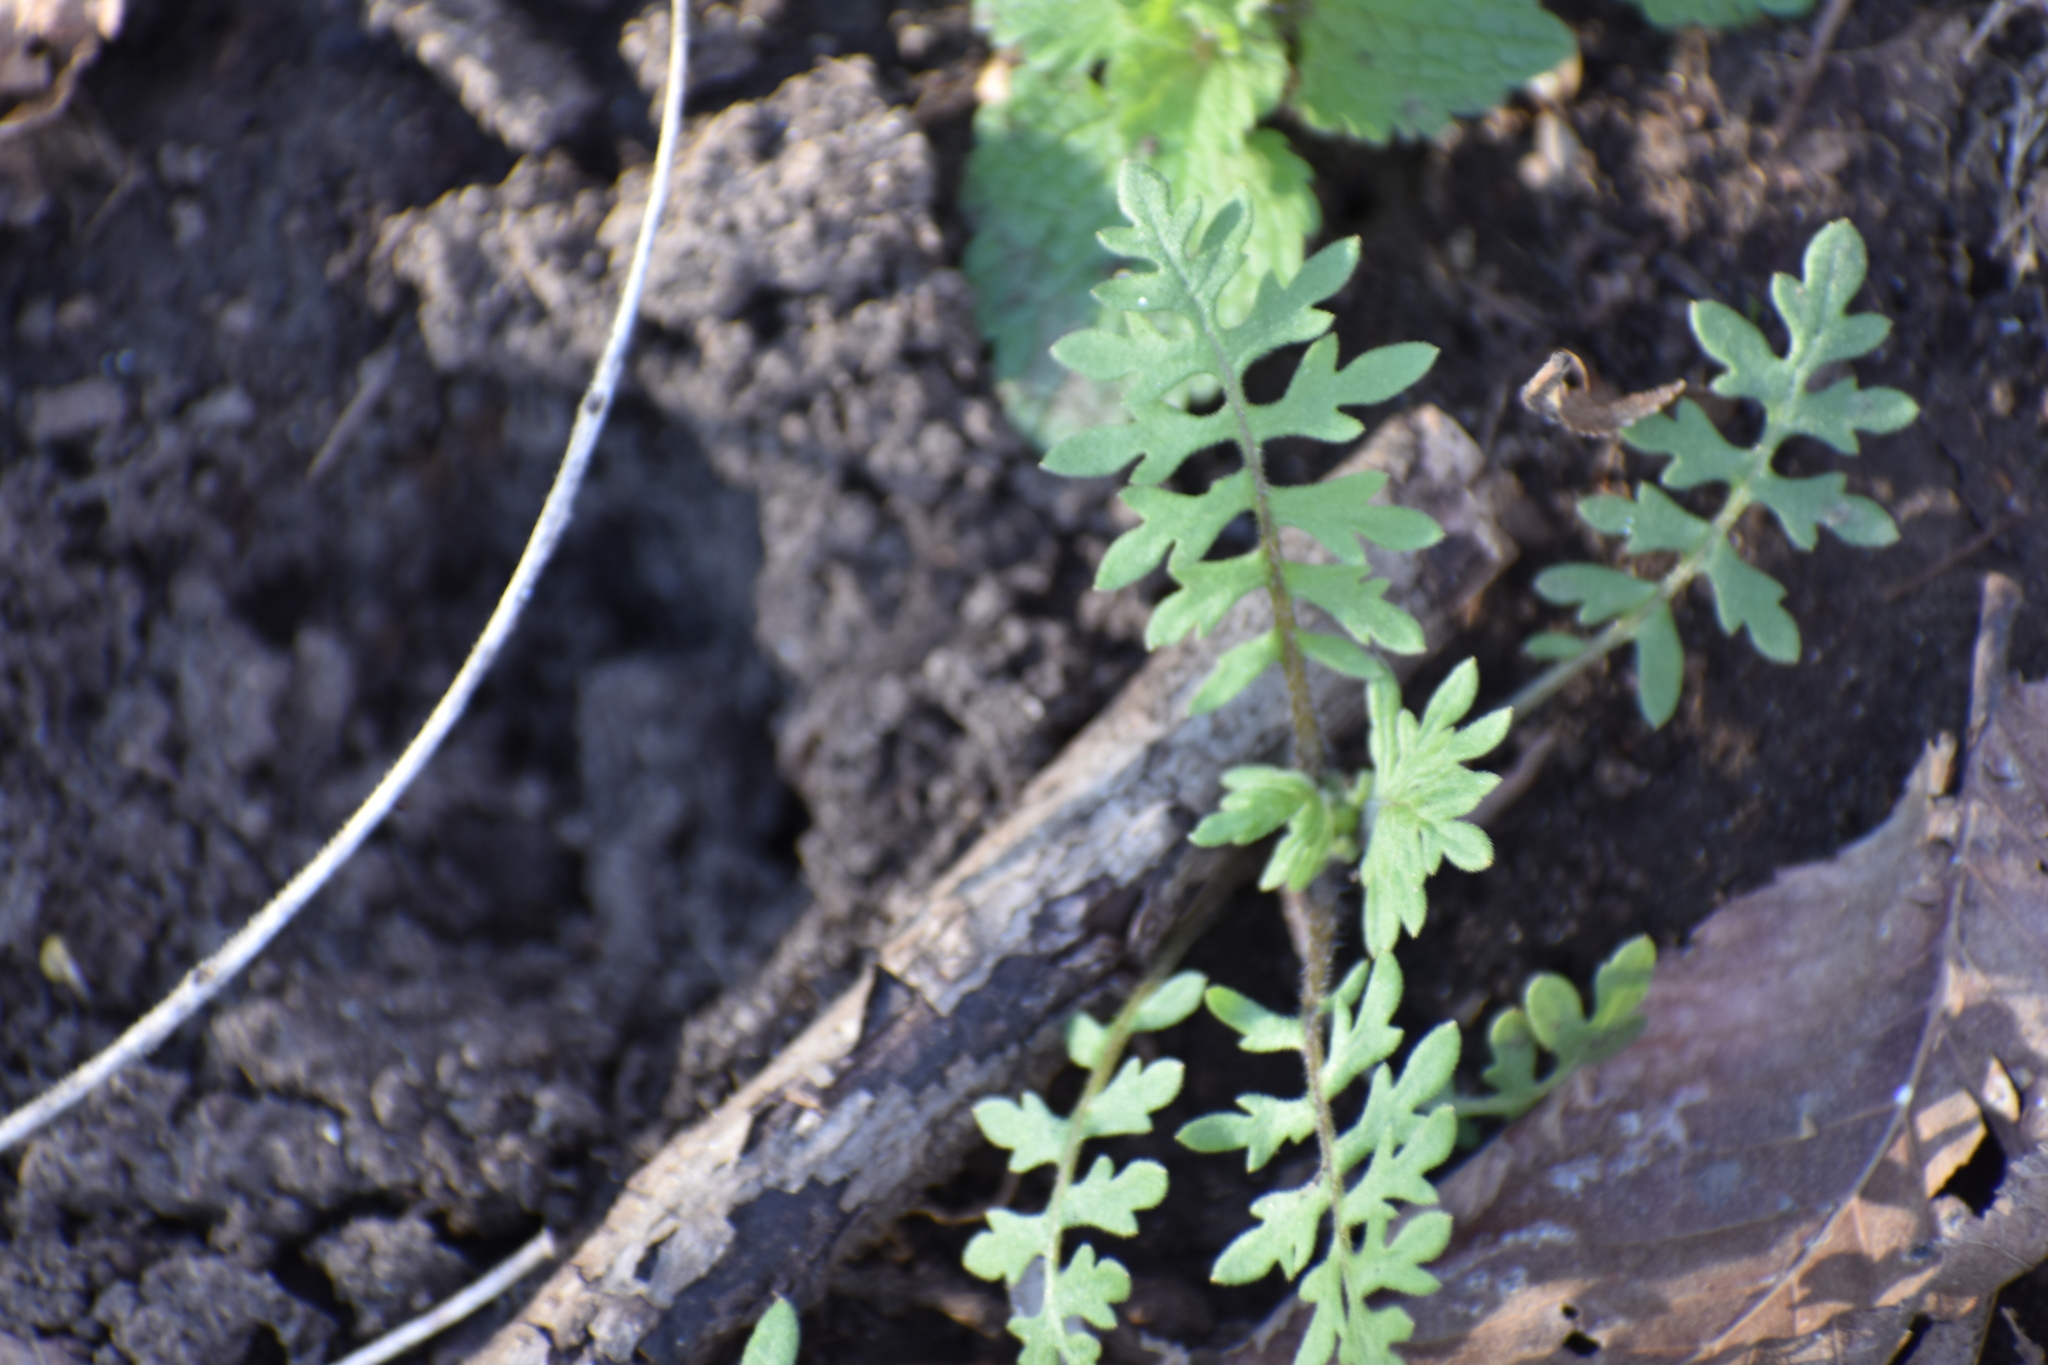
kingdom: Plantae
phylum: Tracheophyta
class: Magnoliopsida
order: Boraginales
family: Hydrophyllaceae
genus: Ellisia
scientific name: Ellisia nyctelea
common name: Aunt lucy
